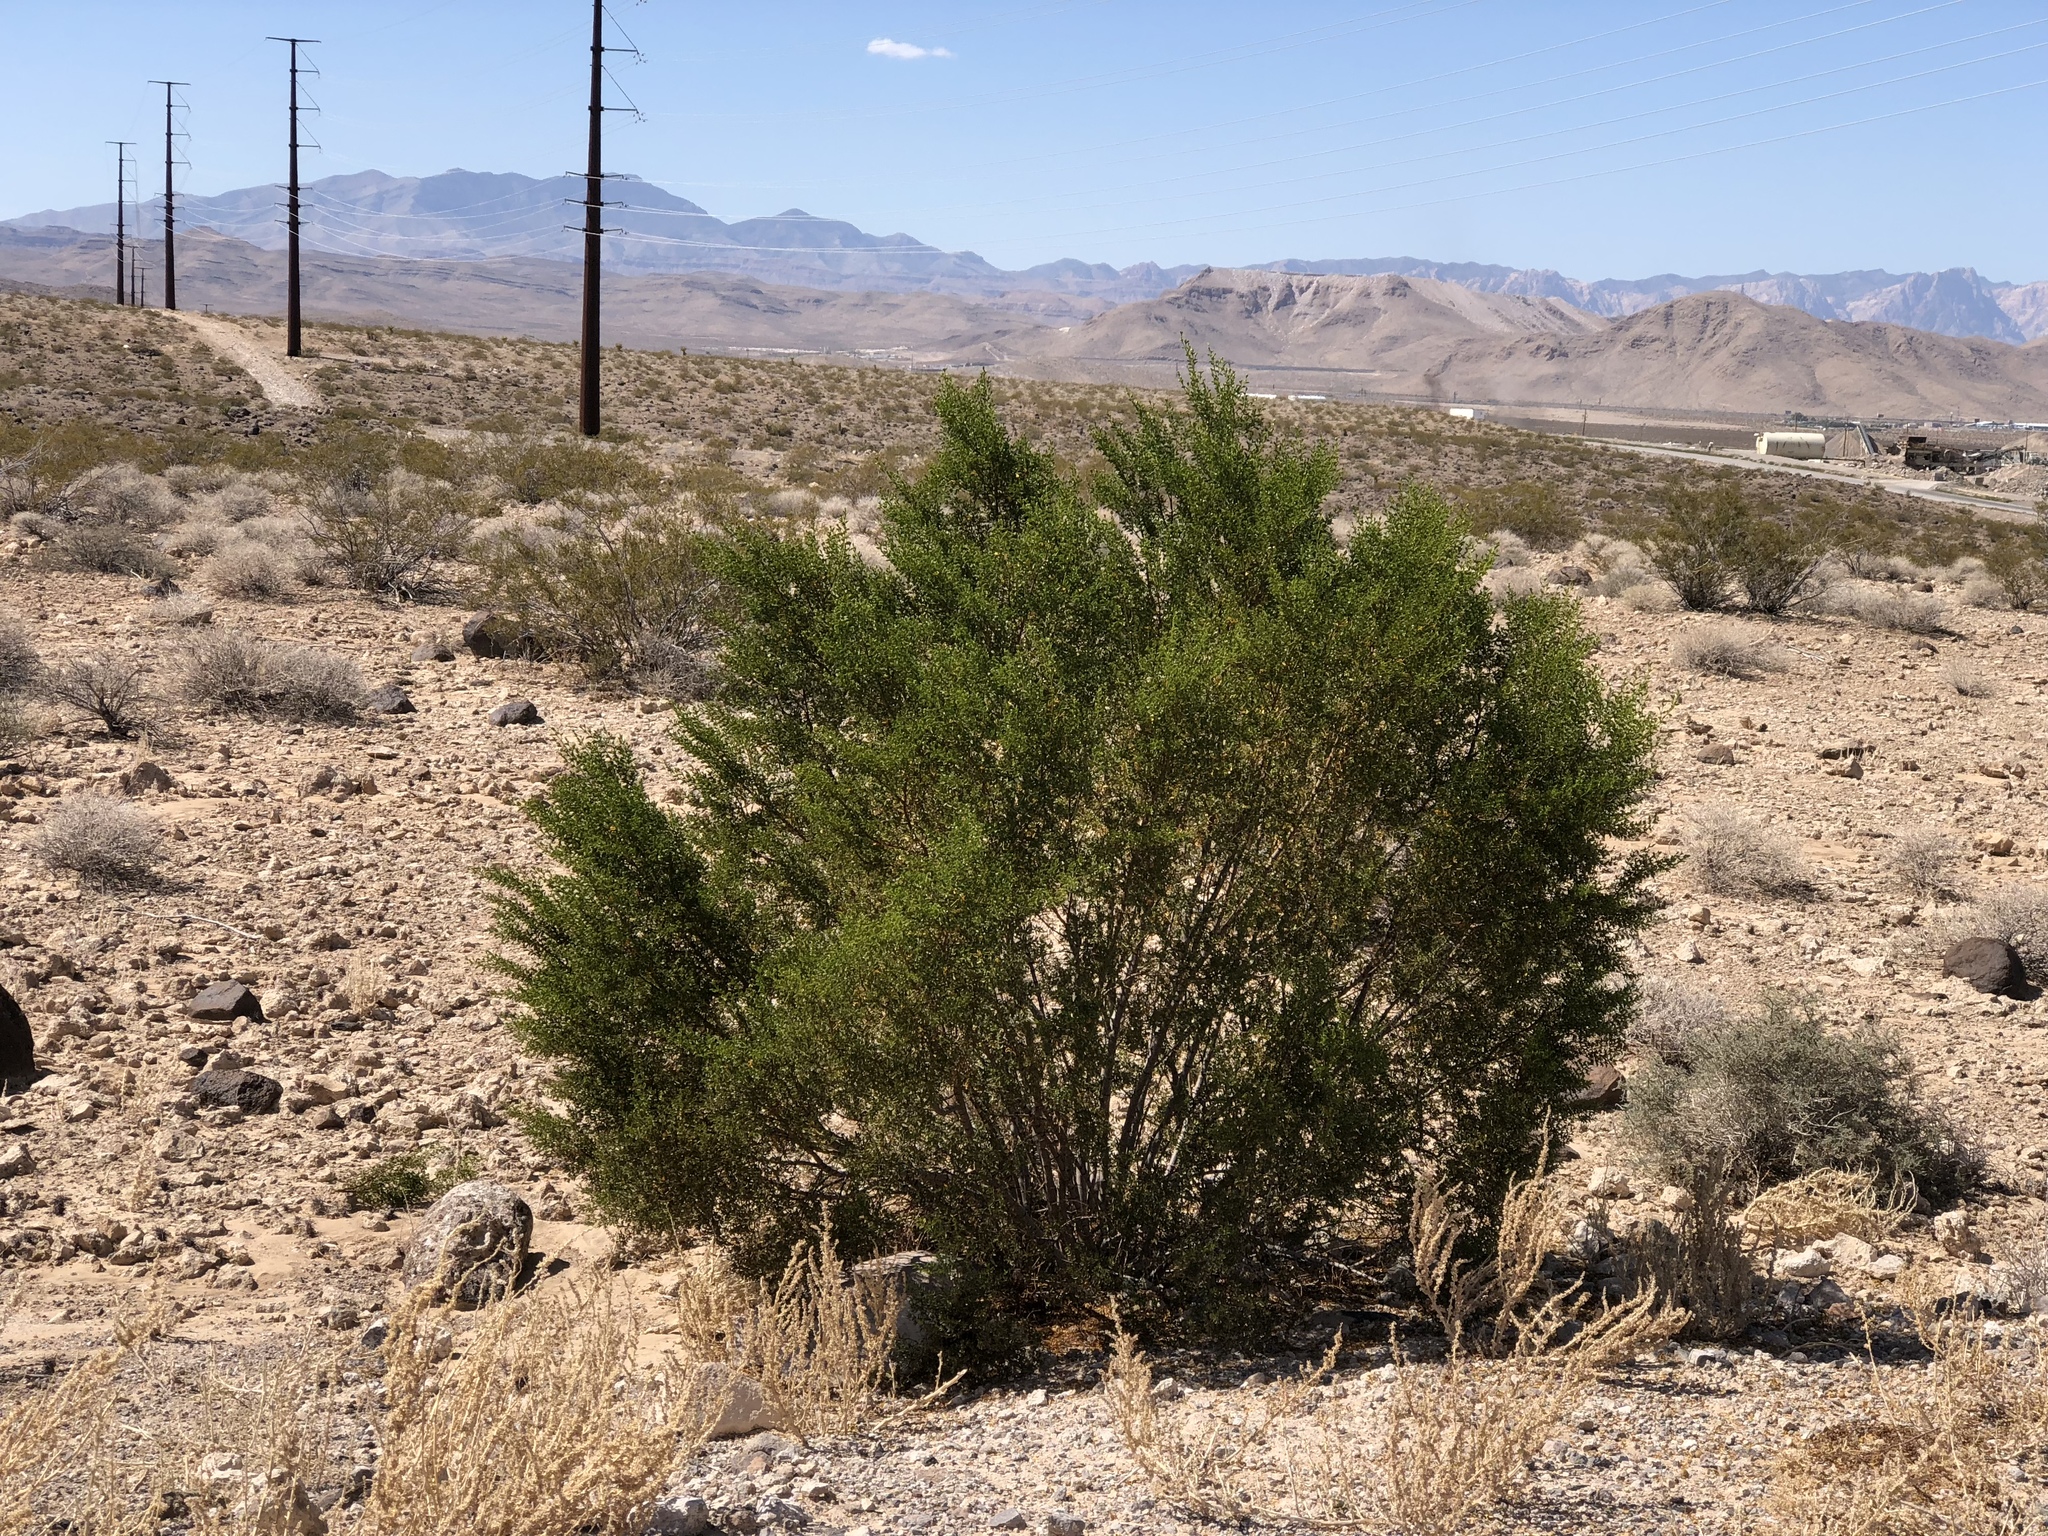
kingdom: Plantae
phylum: Tracheophyta
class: Magnoliopsida
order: Zygophyllales
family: Zygophyllaceae
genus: Larrea
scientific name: Larrea tridentata
